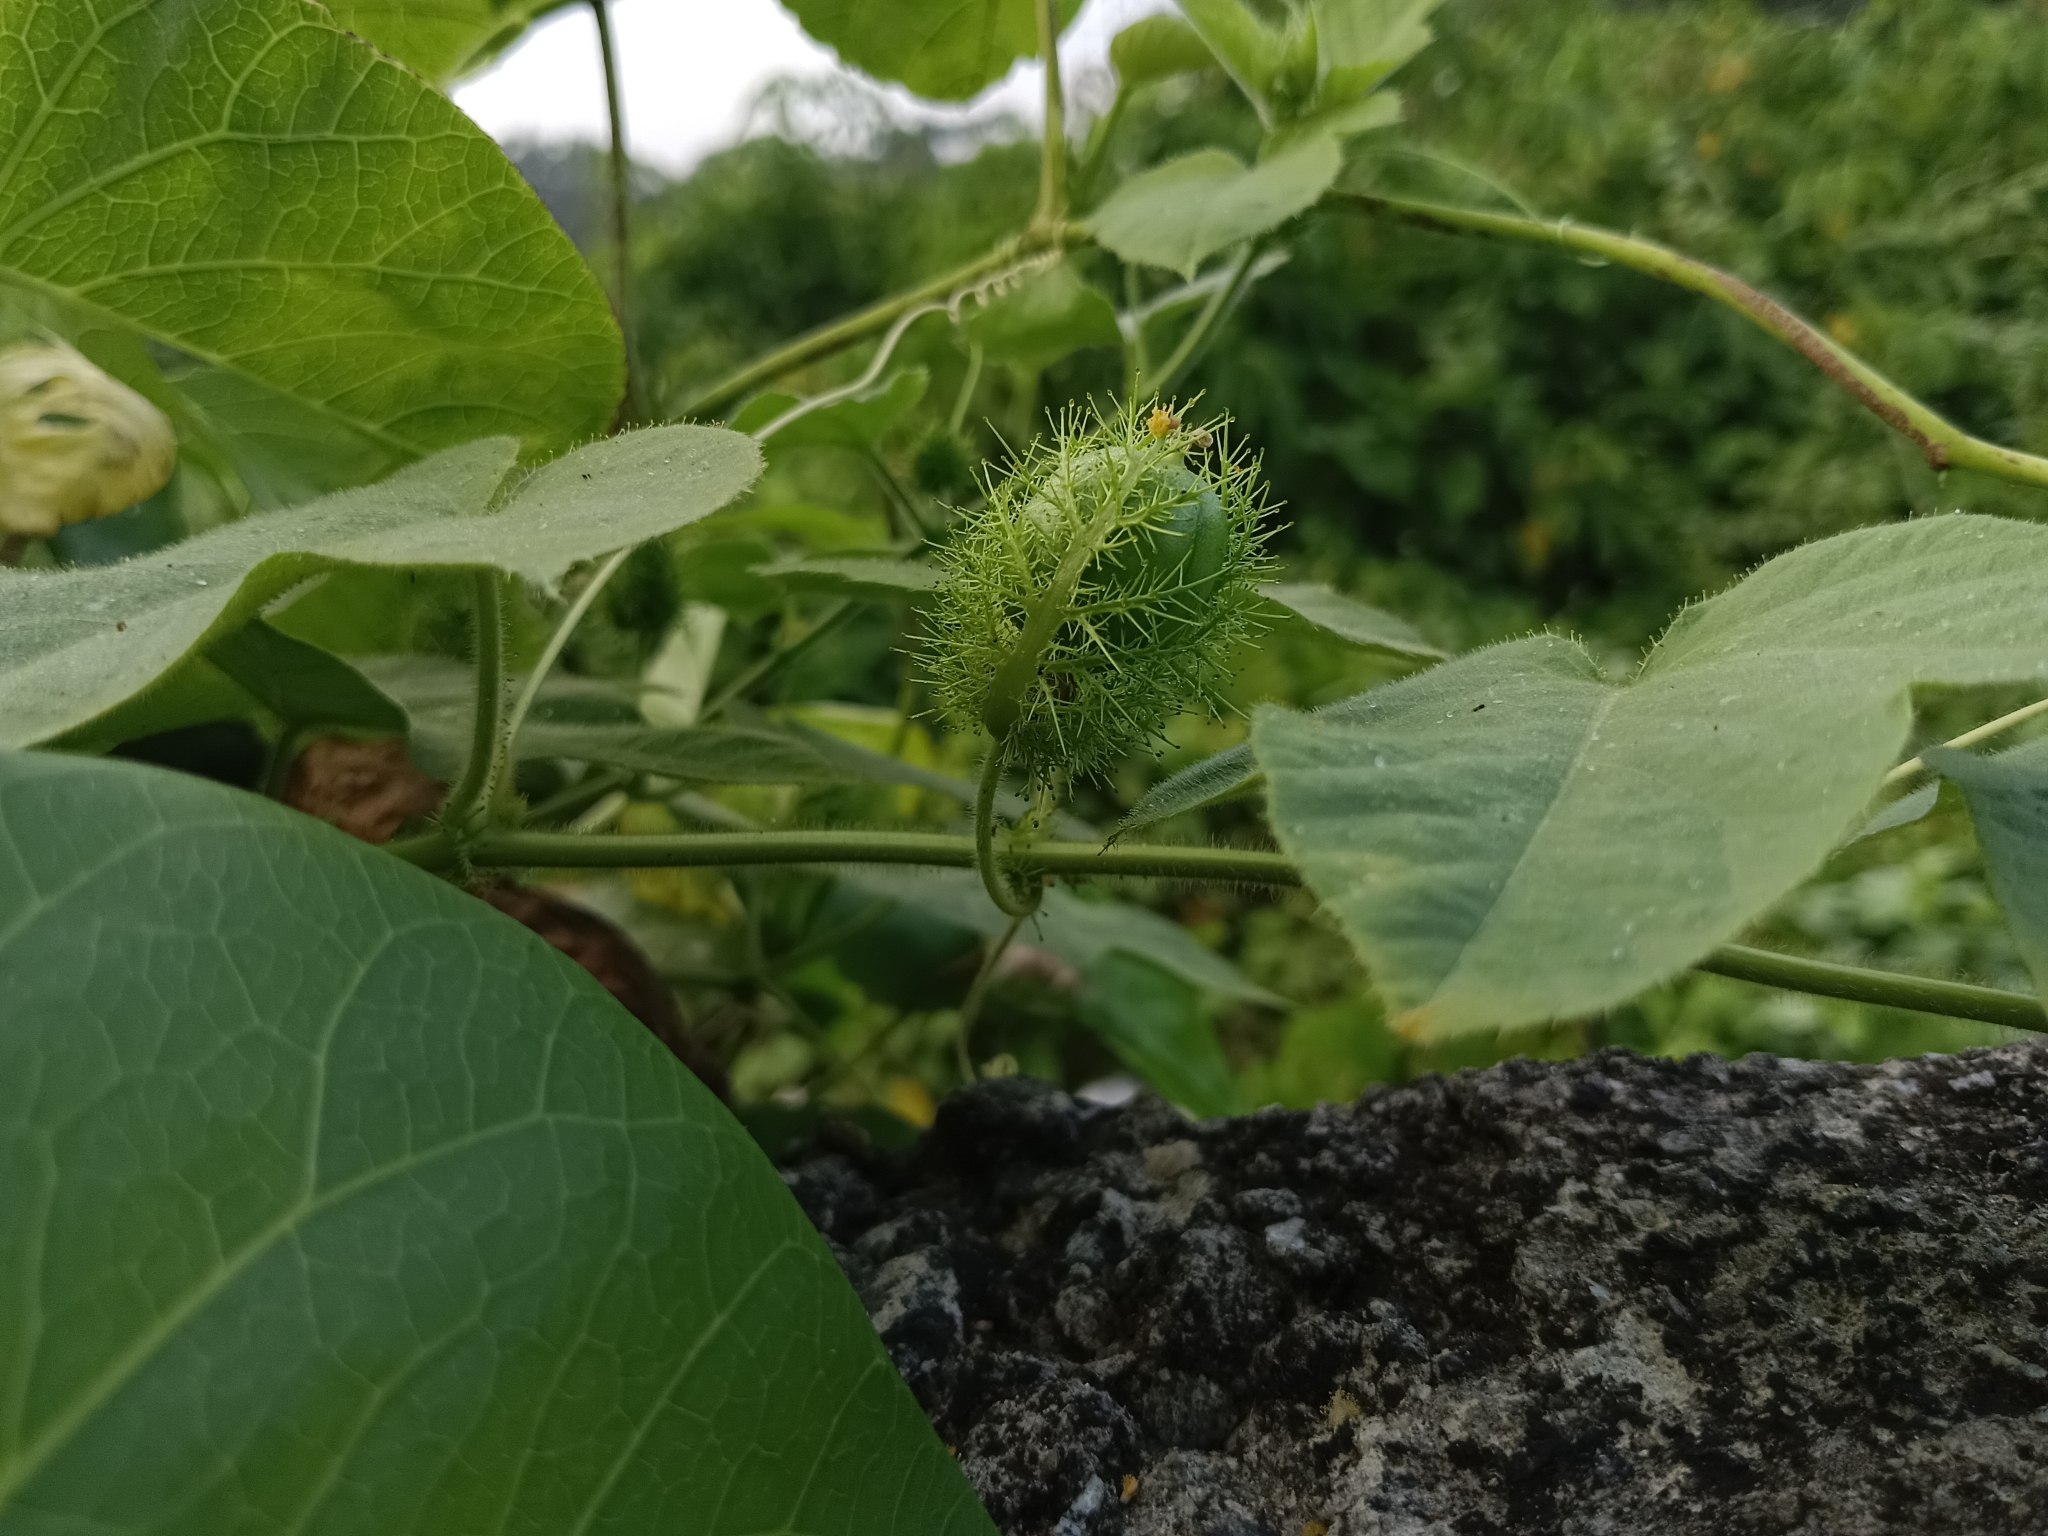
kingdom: Plantae
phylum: Tracheophyta
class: Magnoliopsida
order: Malpighiales
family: Passifloraceae
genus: Passiflora
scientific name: Passiflora vesicaria
